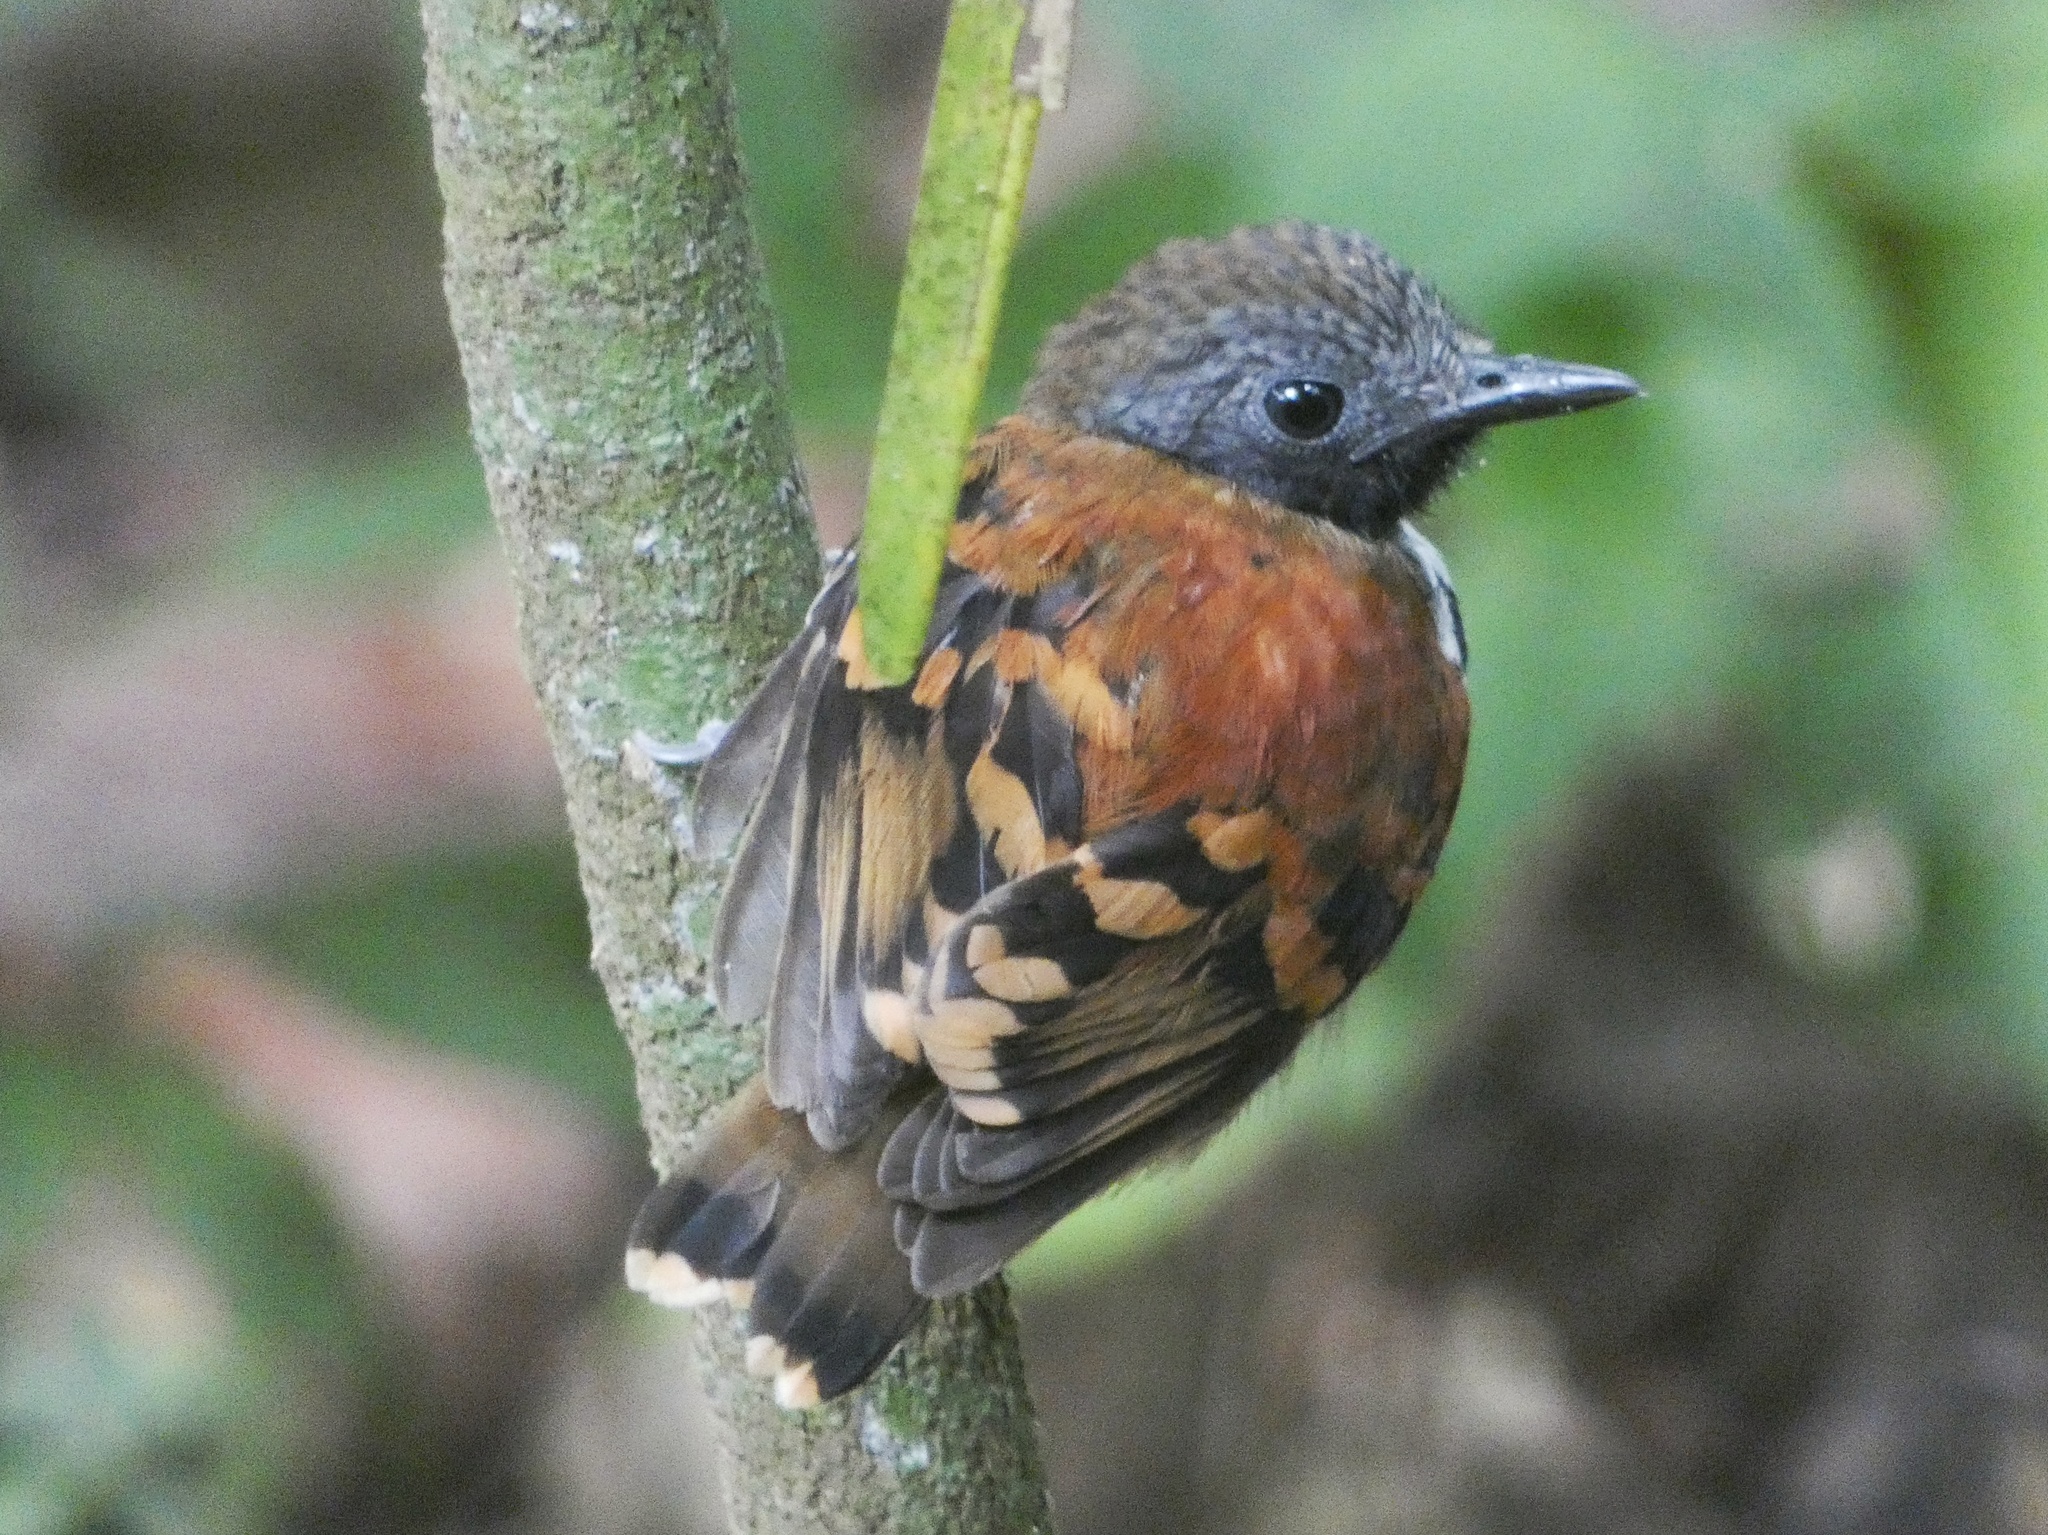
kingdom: Animalia
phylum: Chordata
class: Aves
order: Passeriformes
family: Thamnophilidae
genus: Hylophylax
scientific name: Hylophylax naevioides
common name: Spotted antbird
